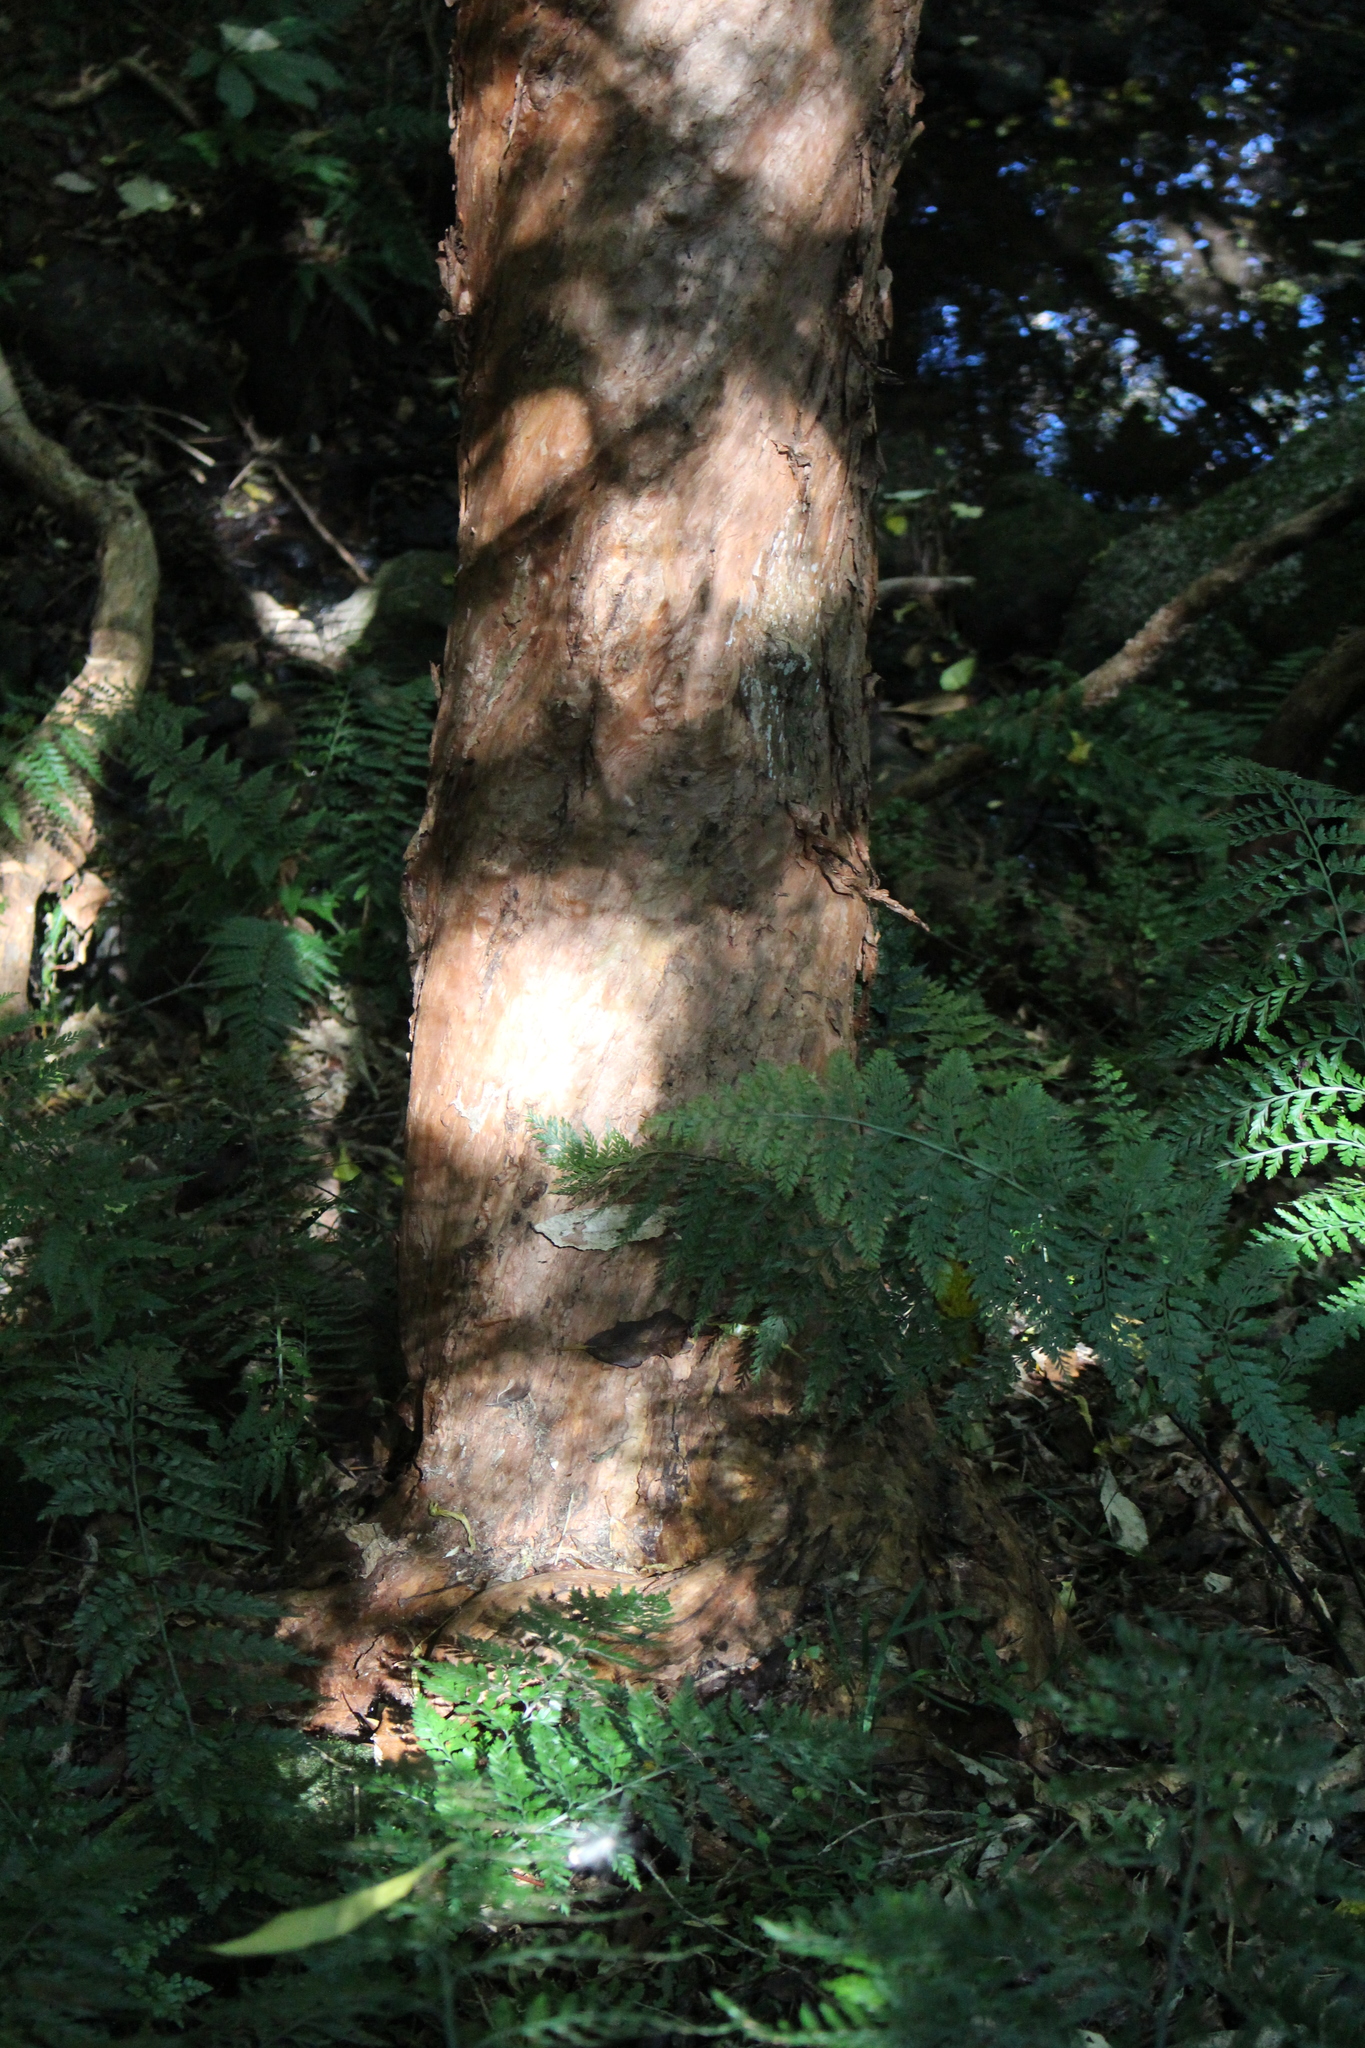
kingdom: Plantae
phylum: Tracheophyta
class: Magnoliopsida
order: Myrtales
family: Onagraceae
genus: Fuchsia
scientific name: Fuchsia excorticata
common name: Tree fuchsia
